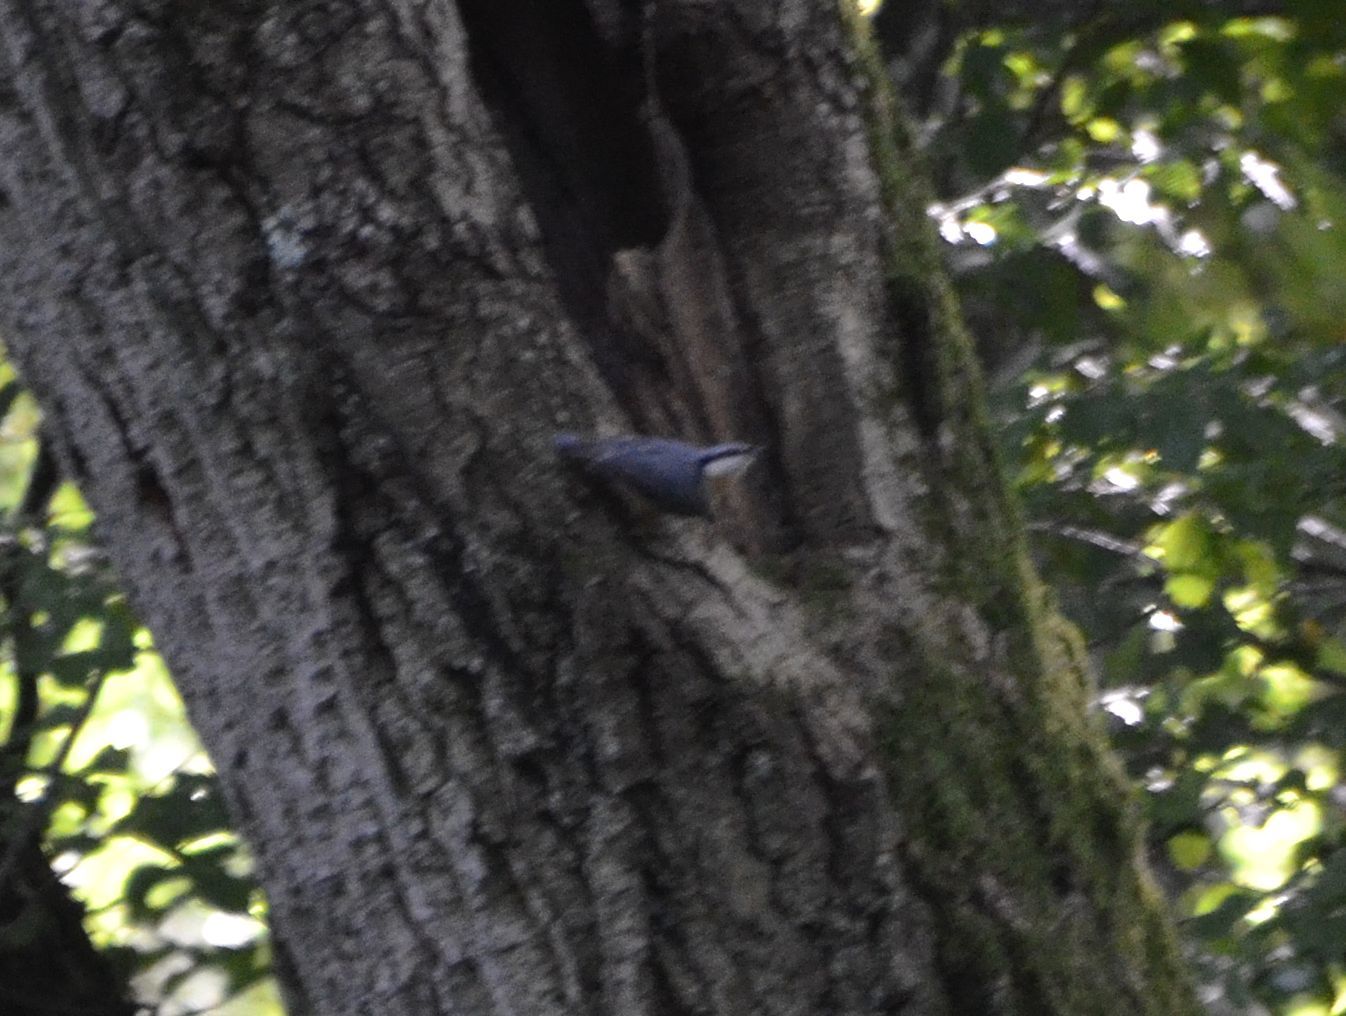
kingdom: Animalia
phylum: Chordata
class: Aves
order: Passeriformes
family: Sittidae
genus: Sitta
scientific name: Sitta europaea
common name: Eurasian nuthatch
